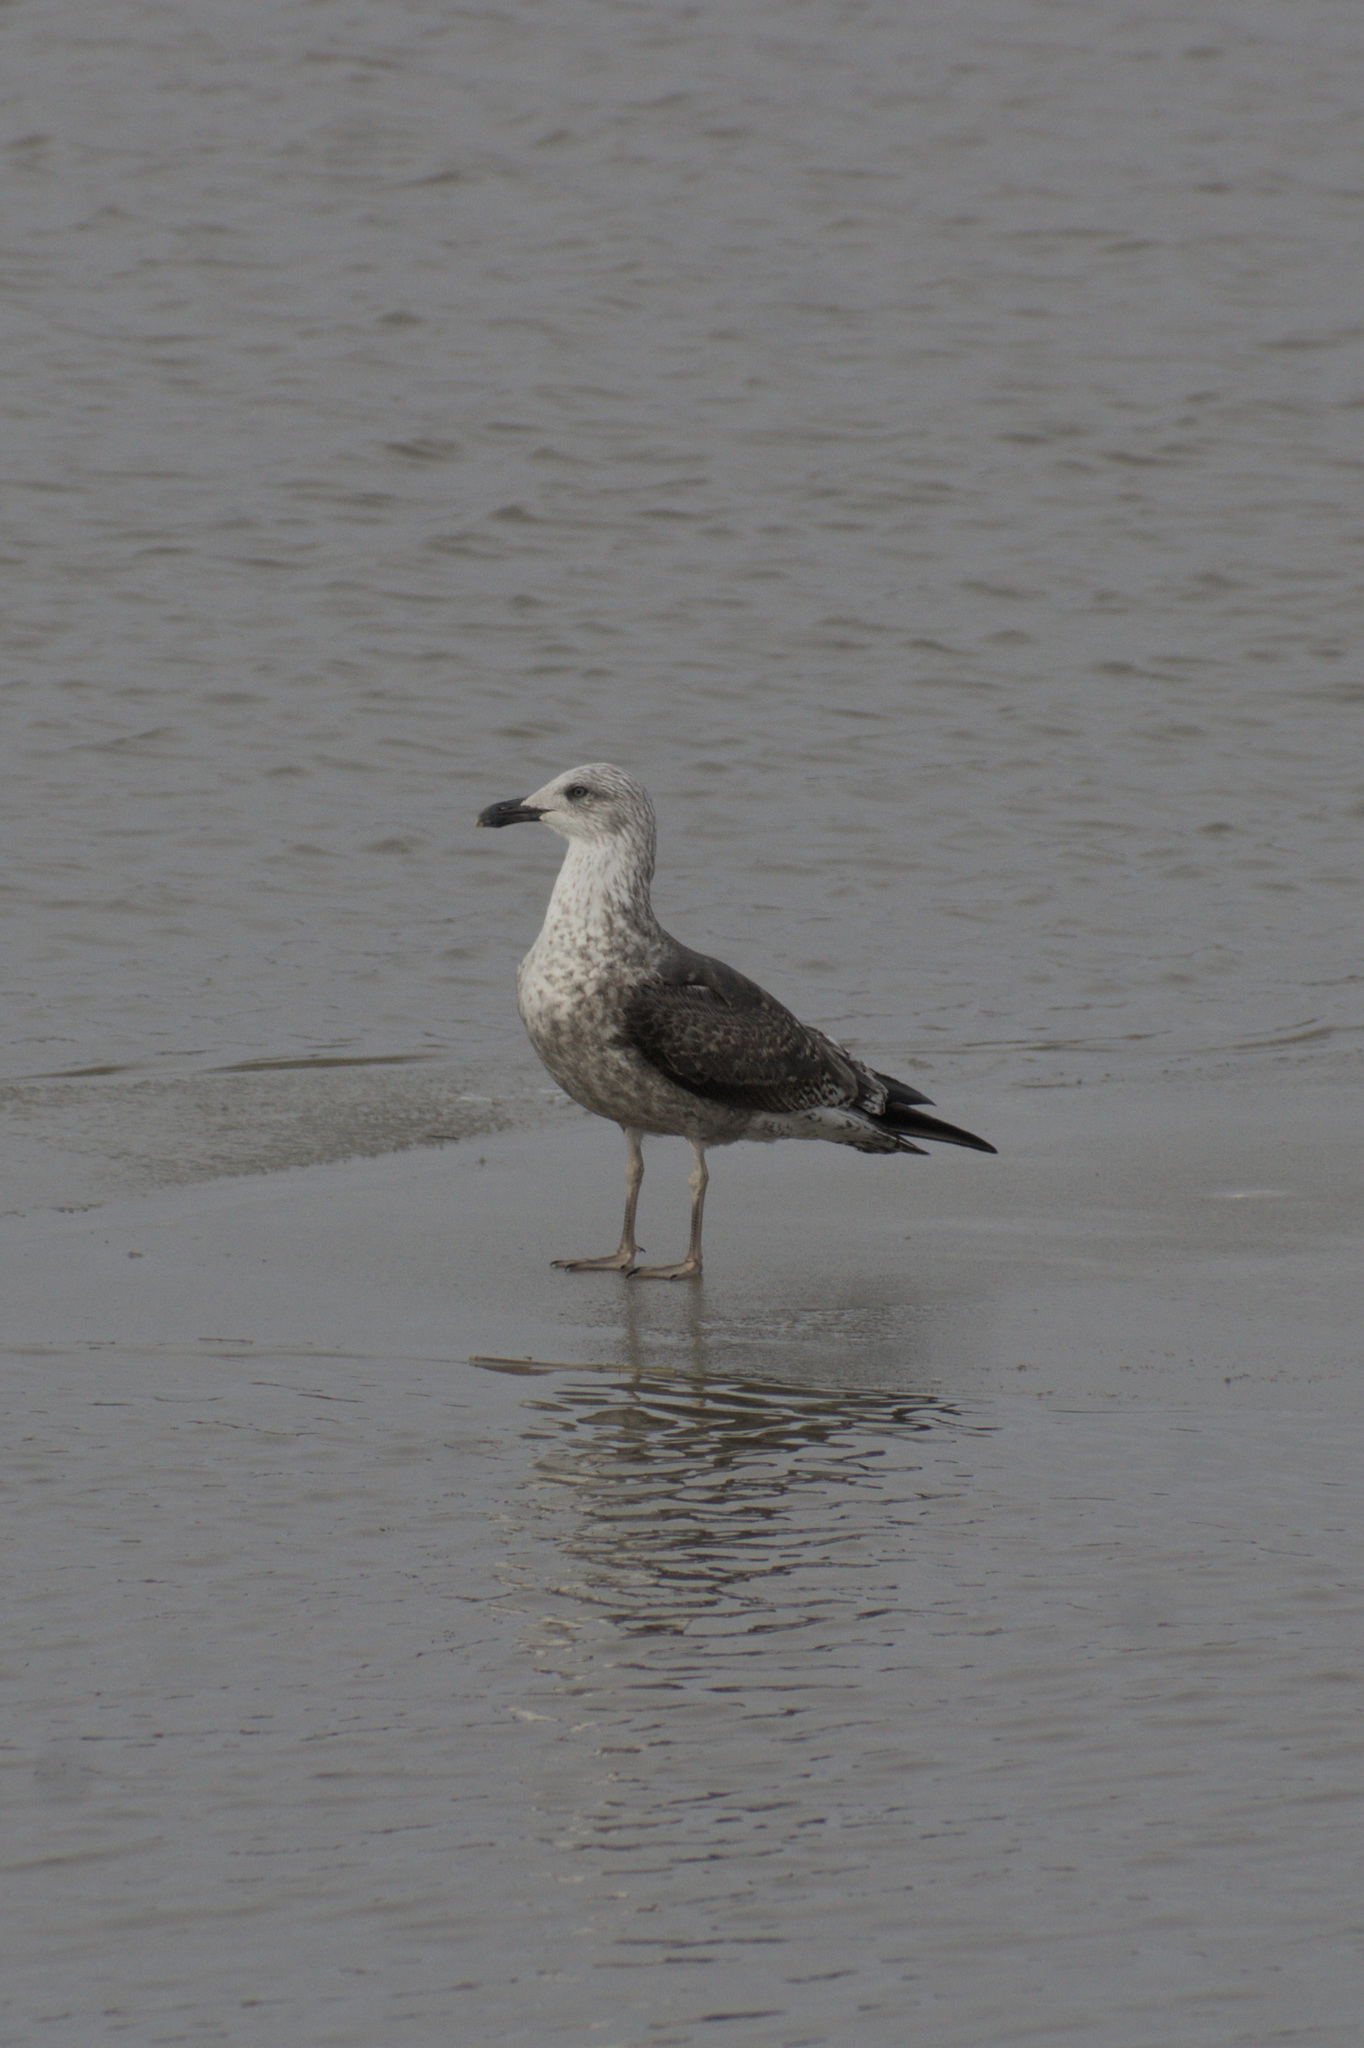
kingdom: Animalia
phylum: Chordata
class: Aves
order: Charadriiformes
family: Laridae
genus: Larus
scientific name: Larus fuscus
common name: Lesser black-backed gull
